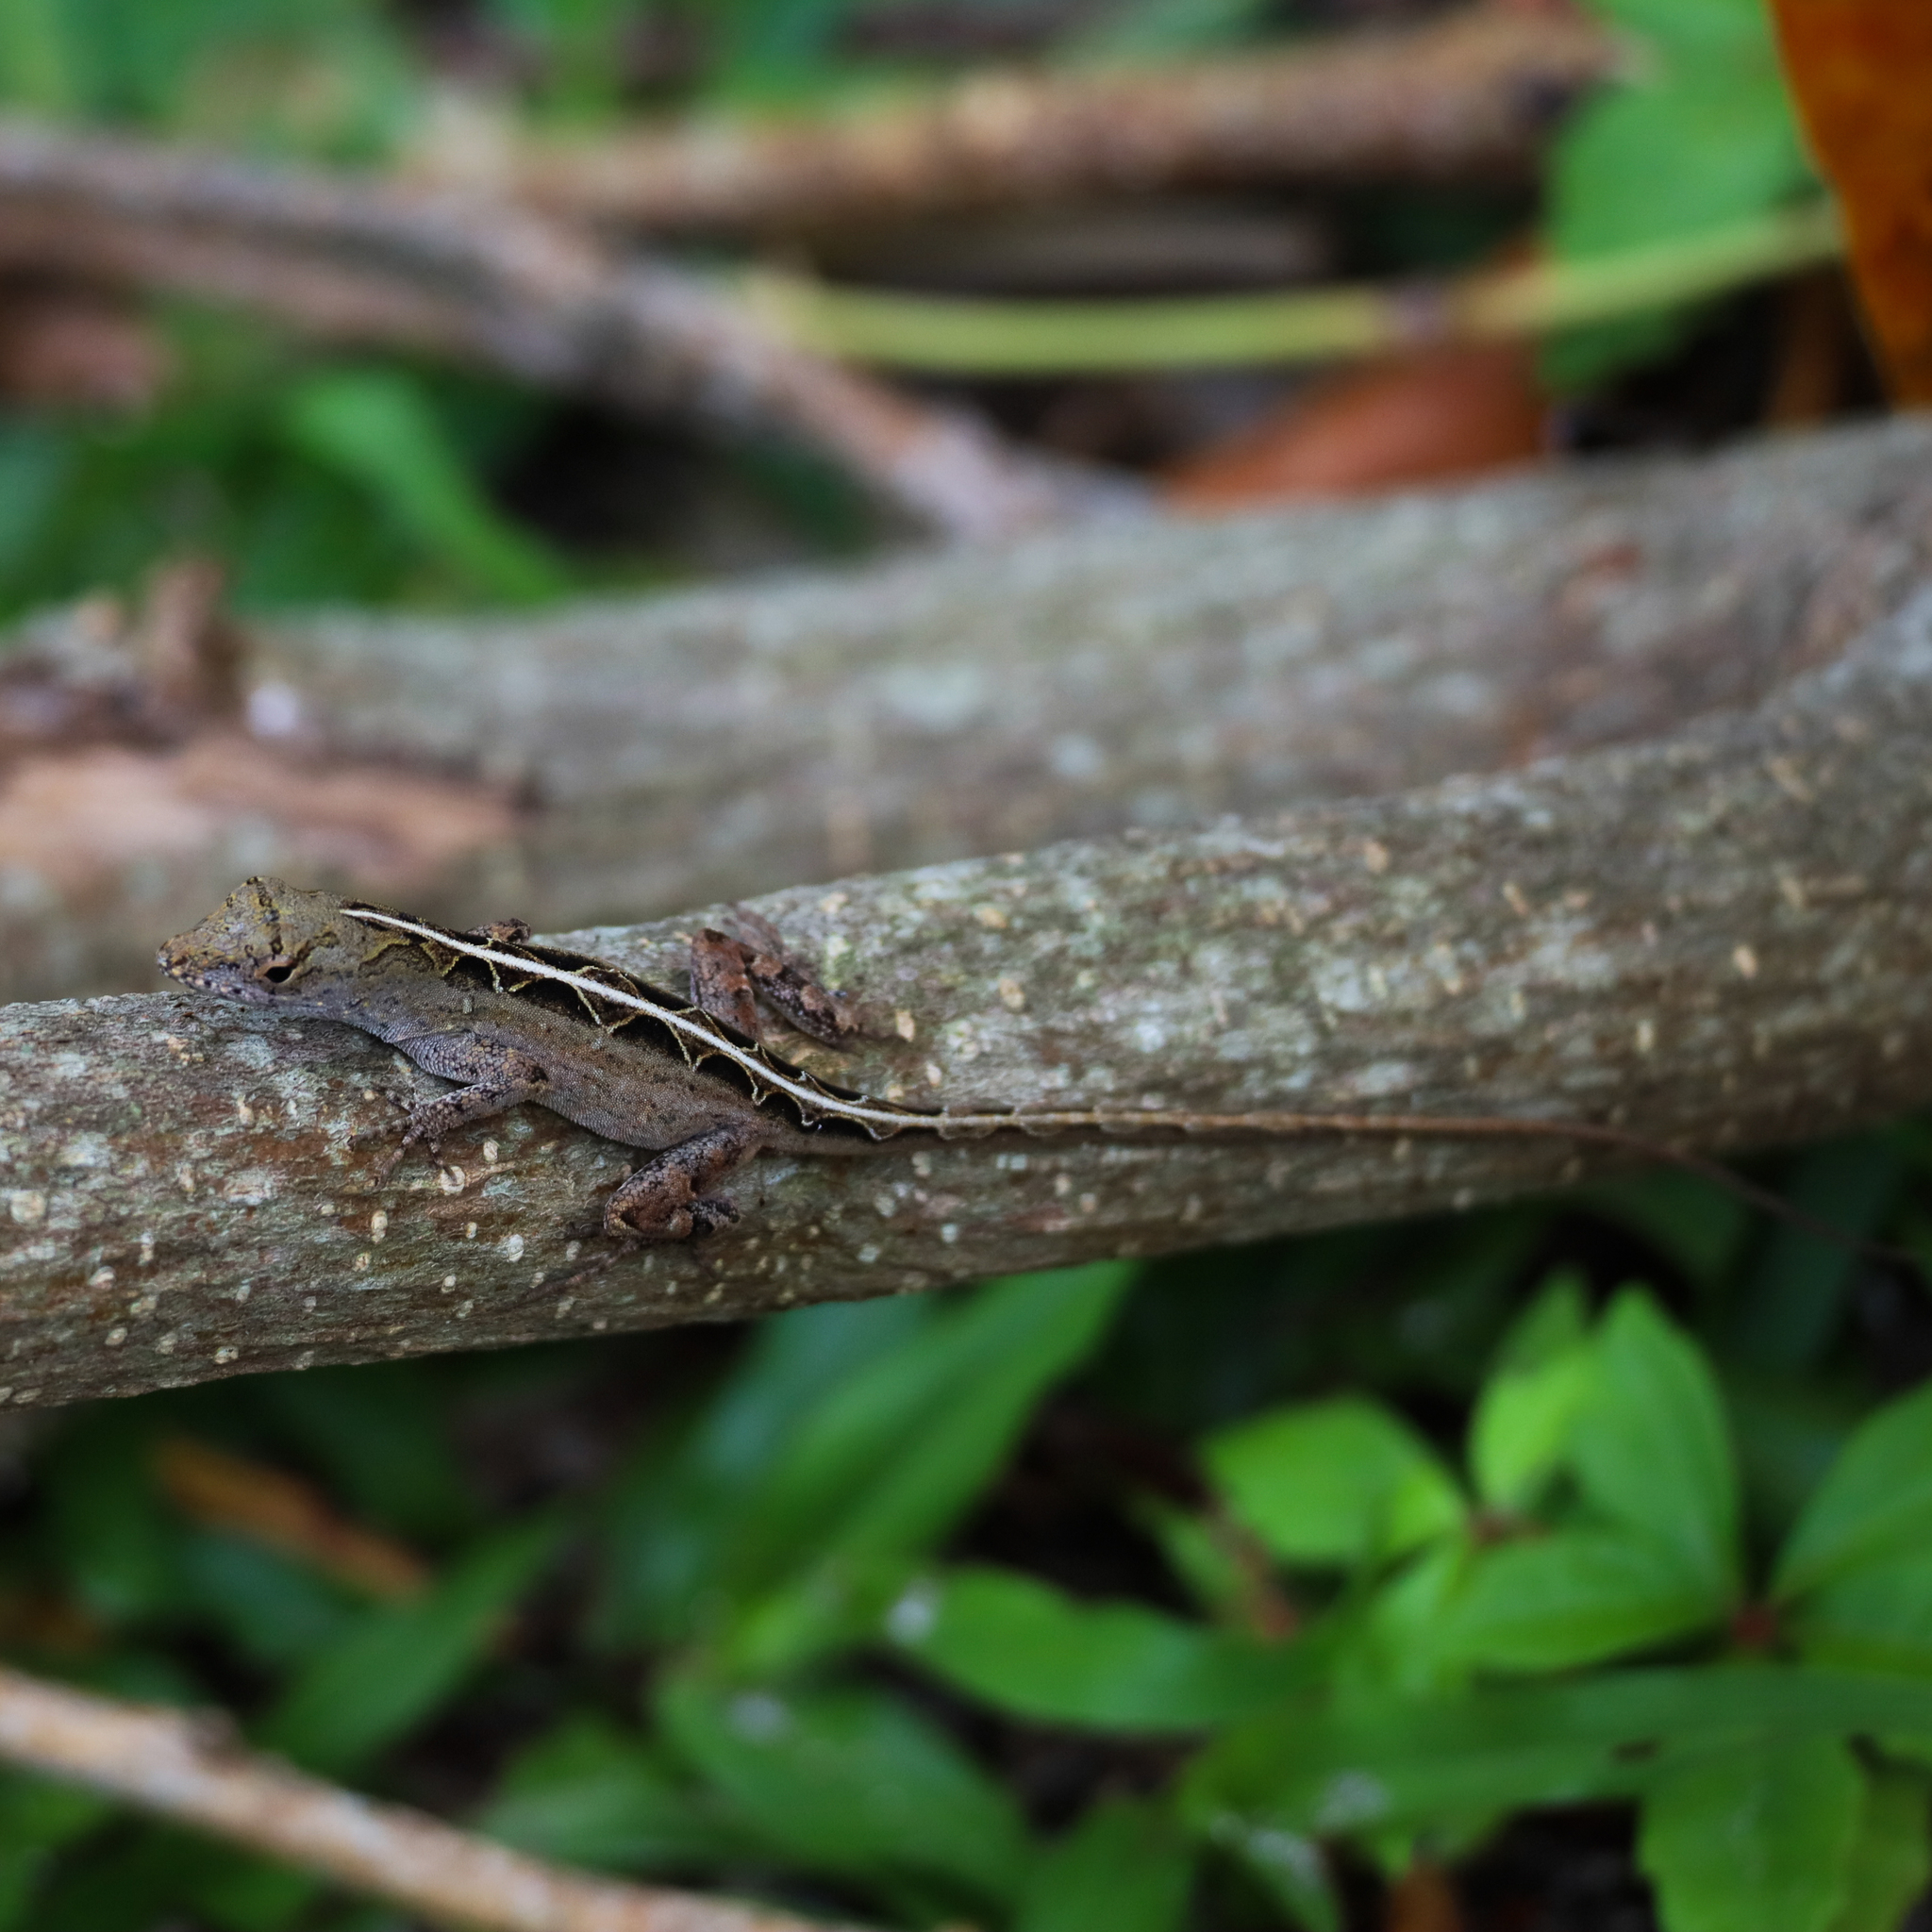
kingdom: Animalia
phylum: Chordata
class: Squamata
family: Dactyloidae
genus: Anolis
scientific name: Anolis sagrei
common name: Brown anole
